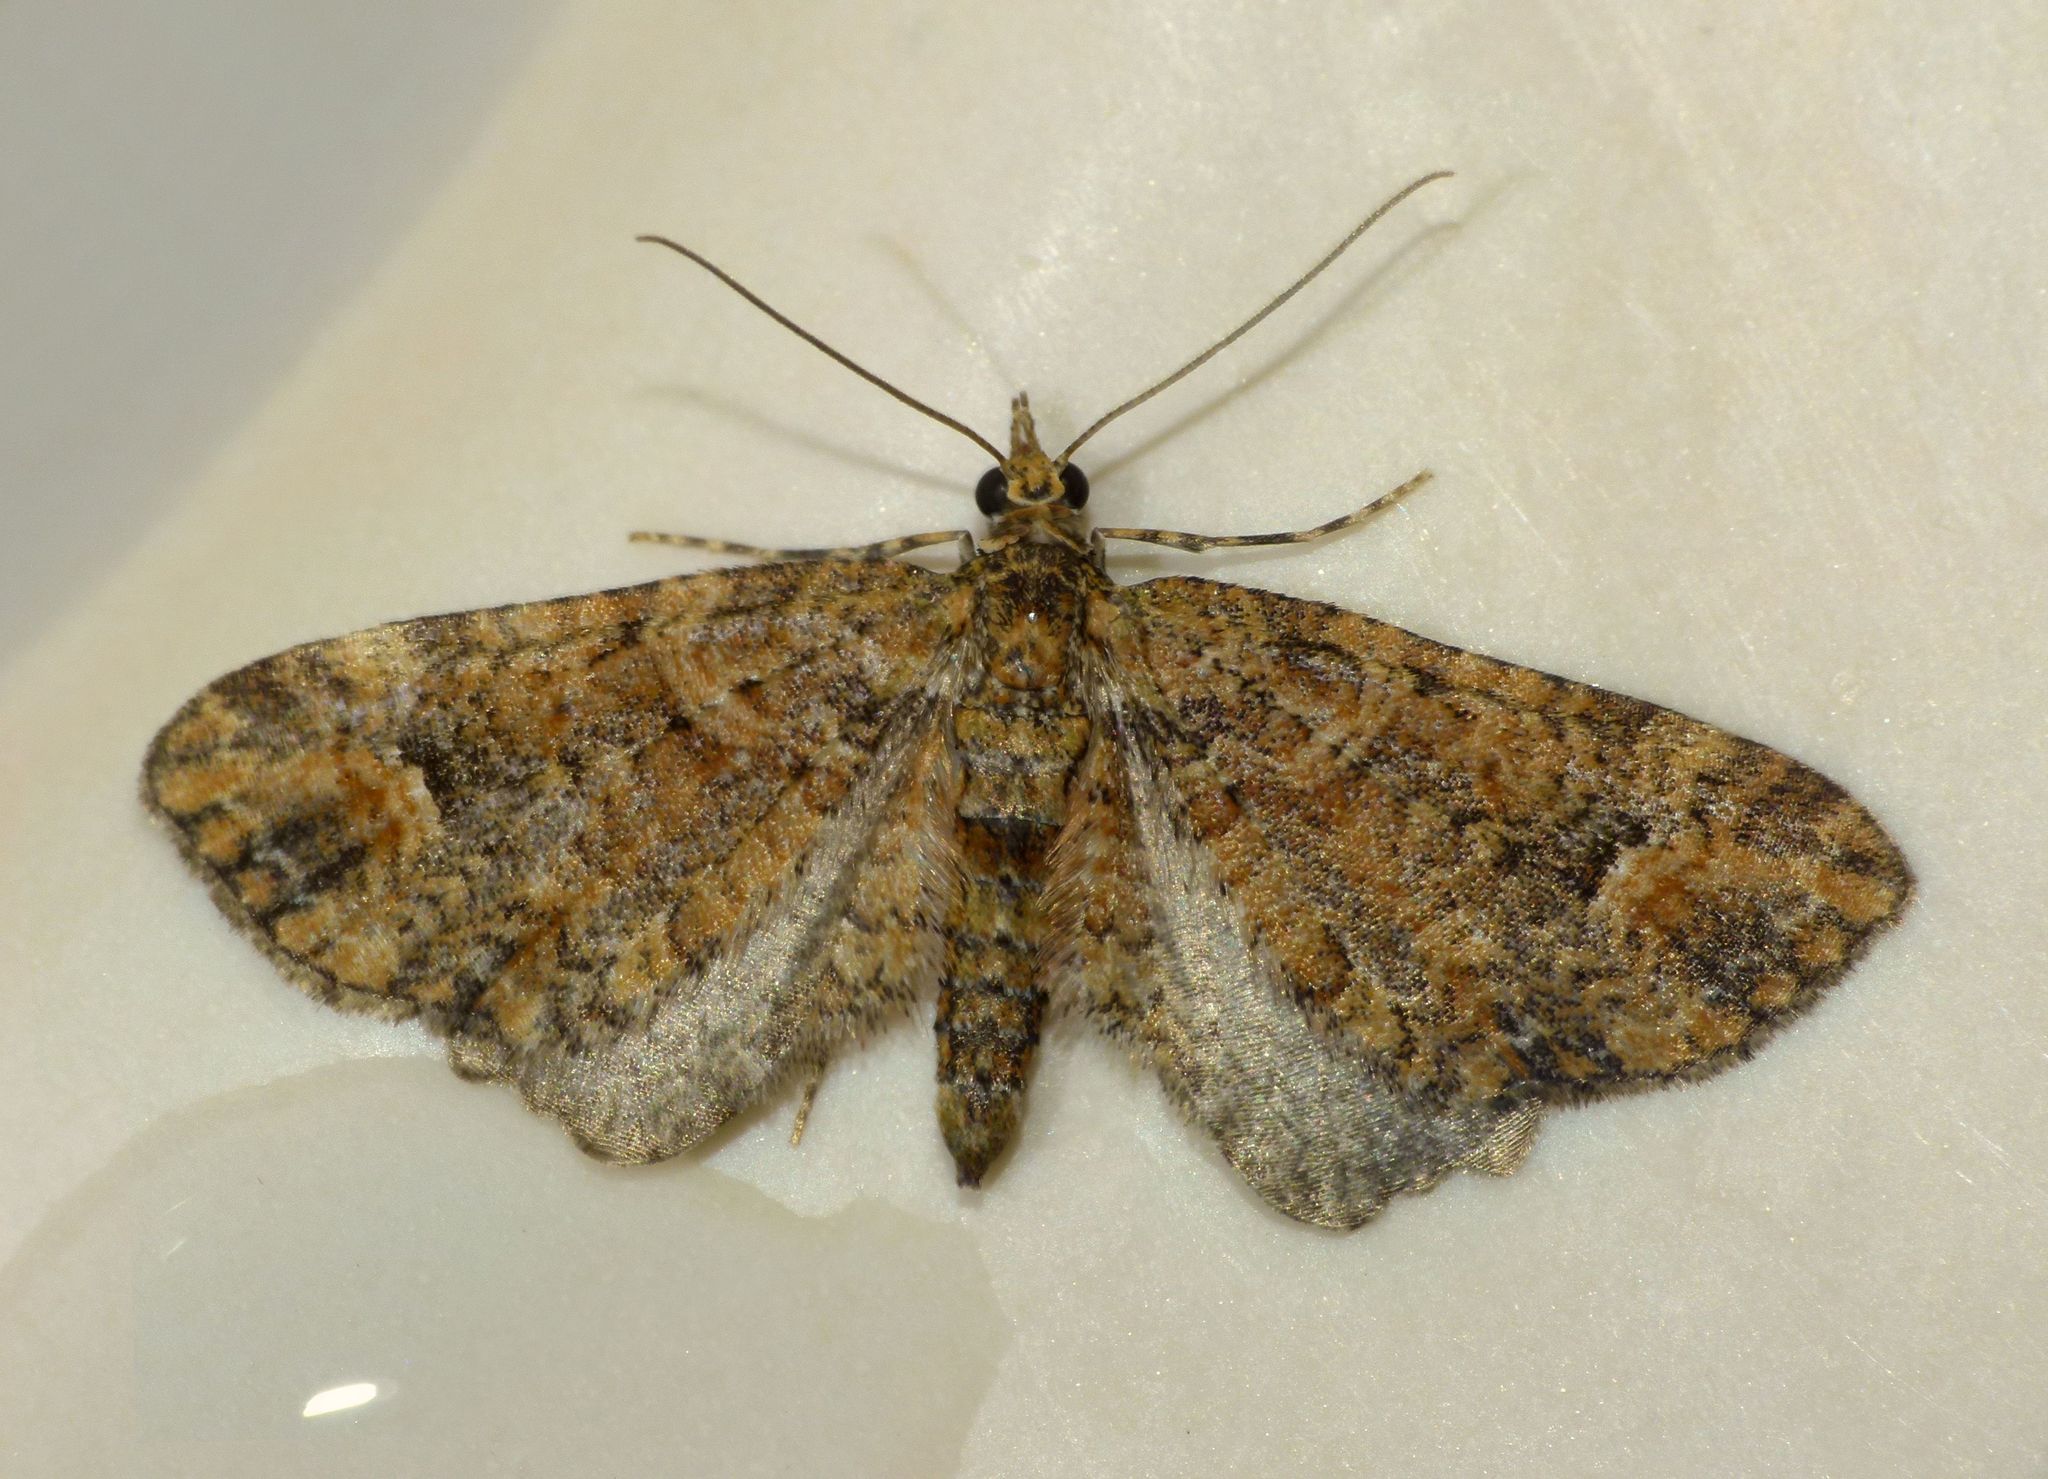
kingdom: Animalia
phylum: Arthropoda
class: Insecta
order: Lepidoptera
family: Geometridae
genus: Idaea
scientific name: Idaea mutanda
